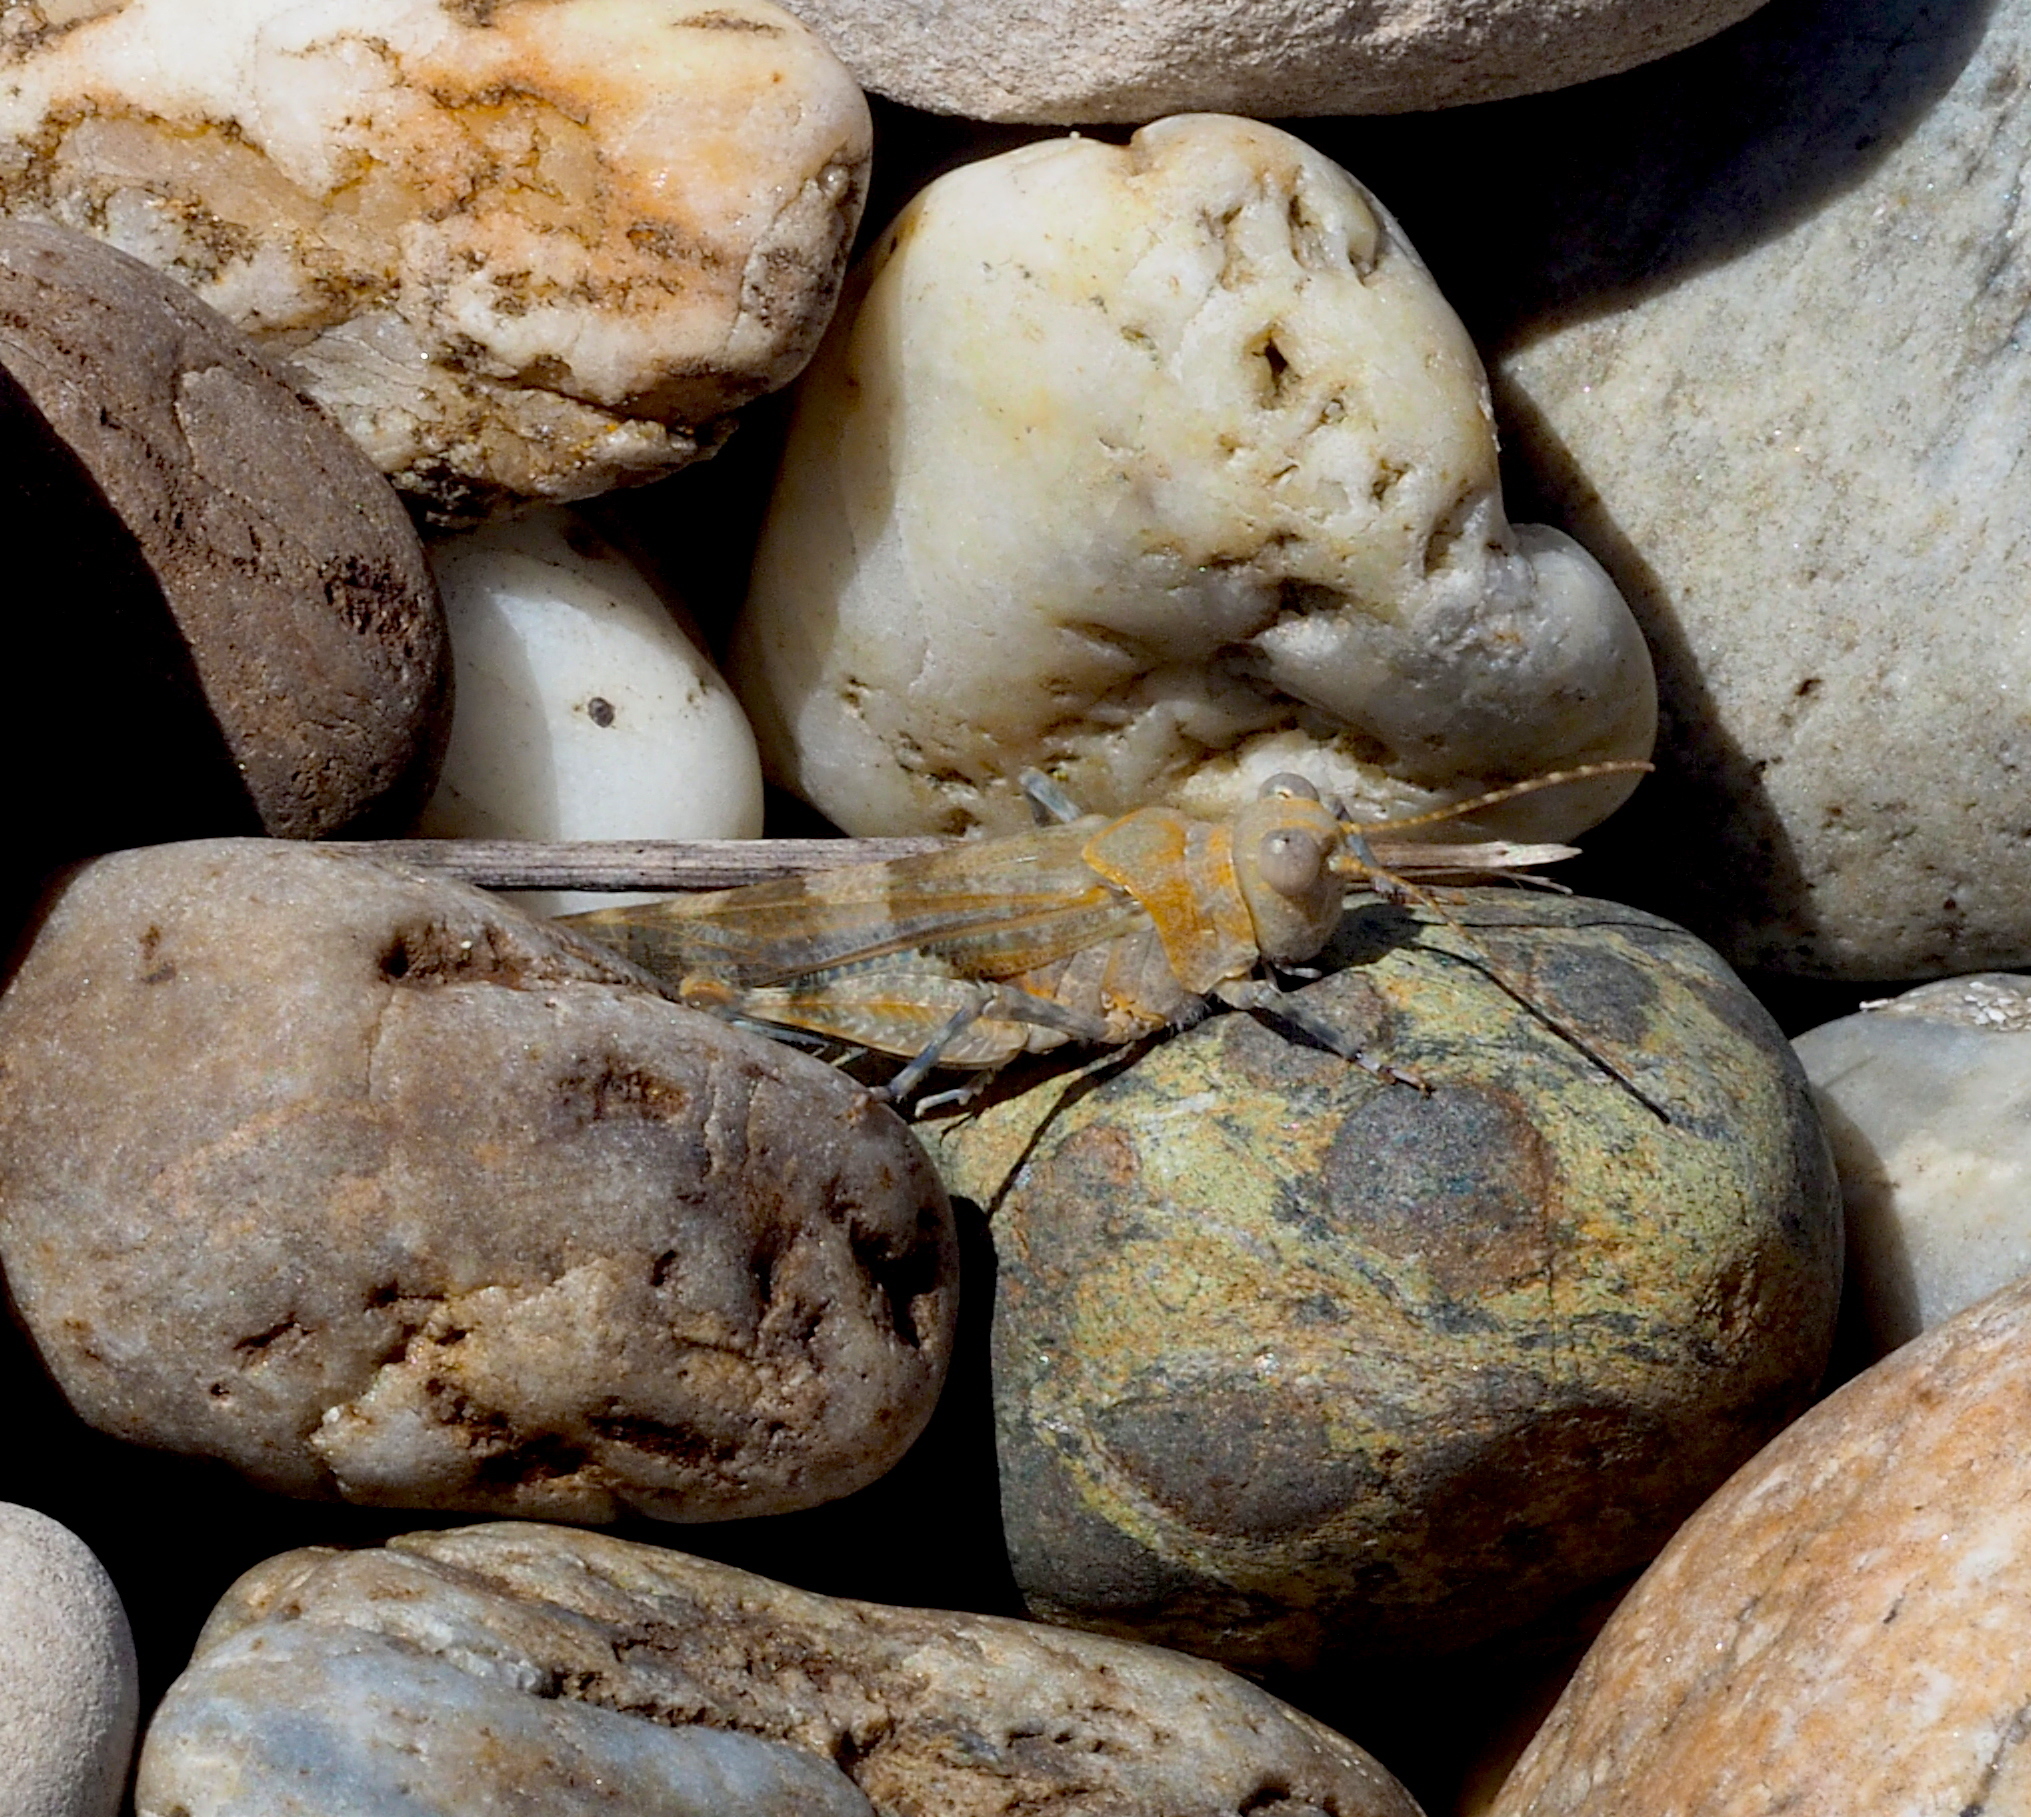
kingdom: Animalia
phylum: Arthropoda
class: Insecta
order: Orthoptera
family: Acrididae
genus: Sphingonotus
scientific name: Sphingonotus caerulans
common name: Blue-winged locust
